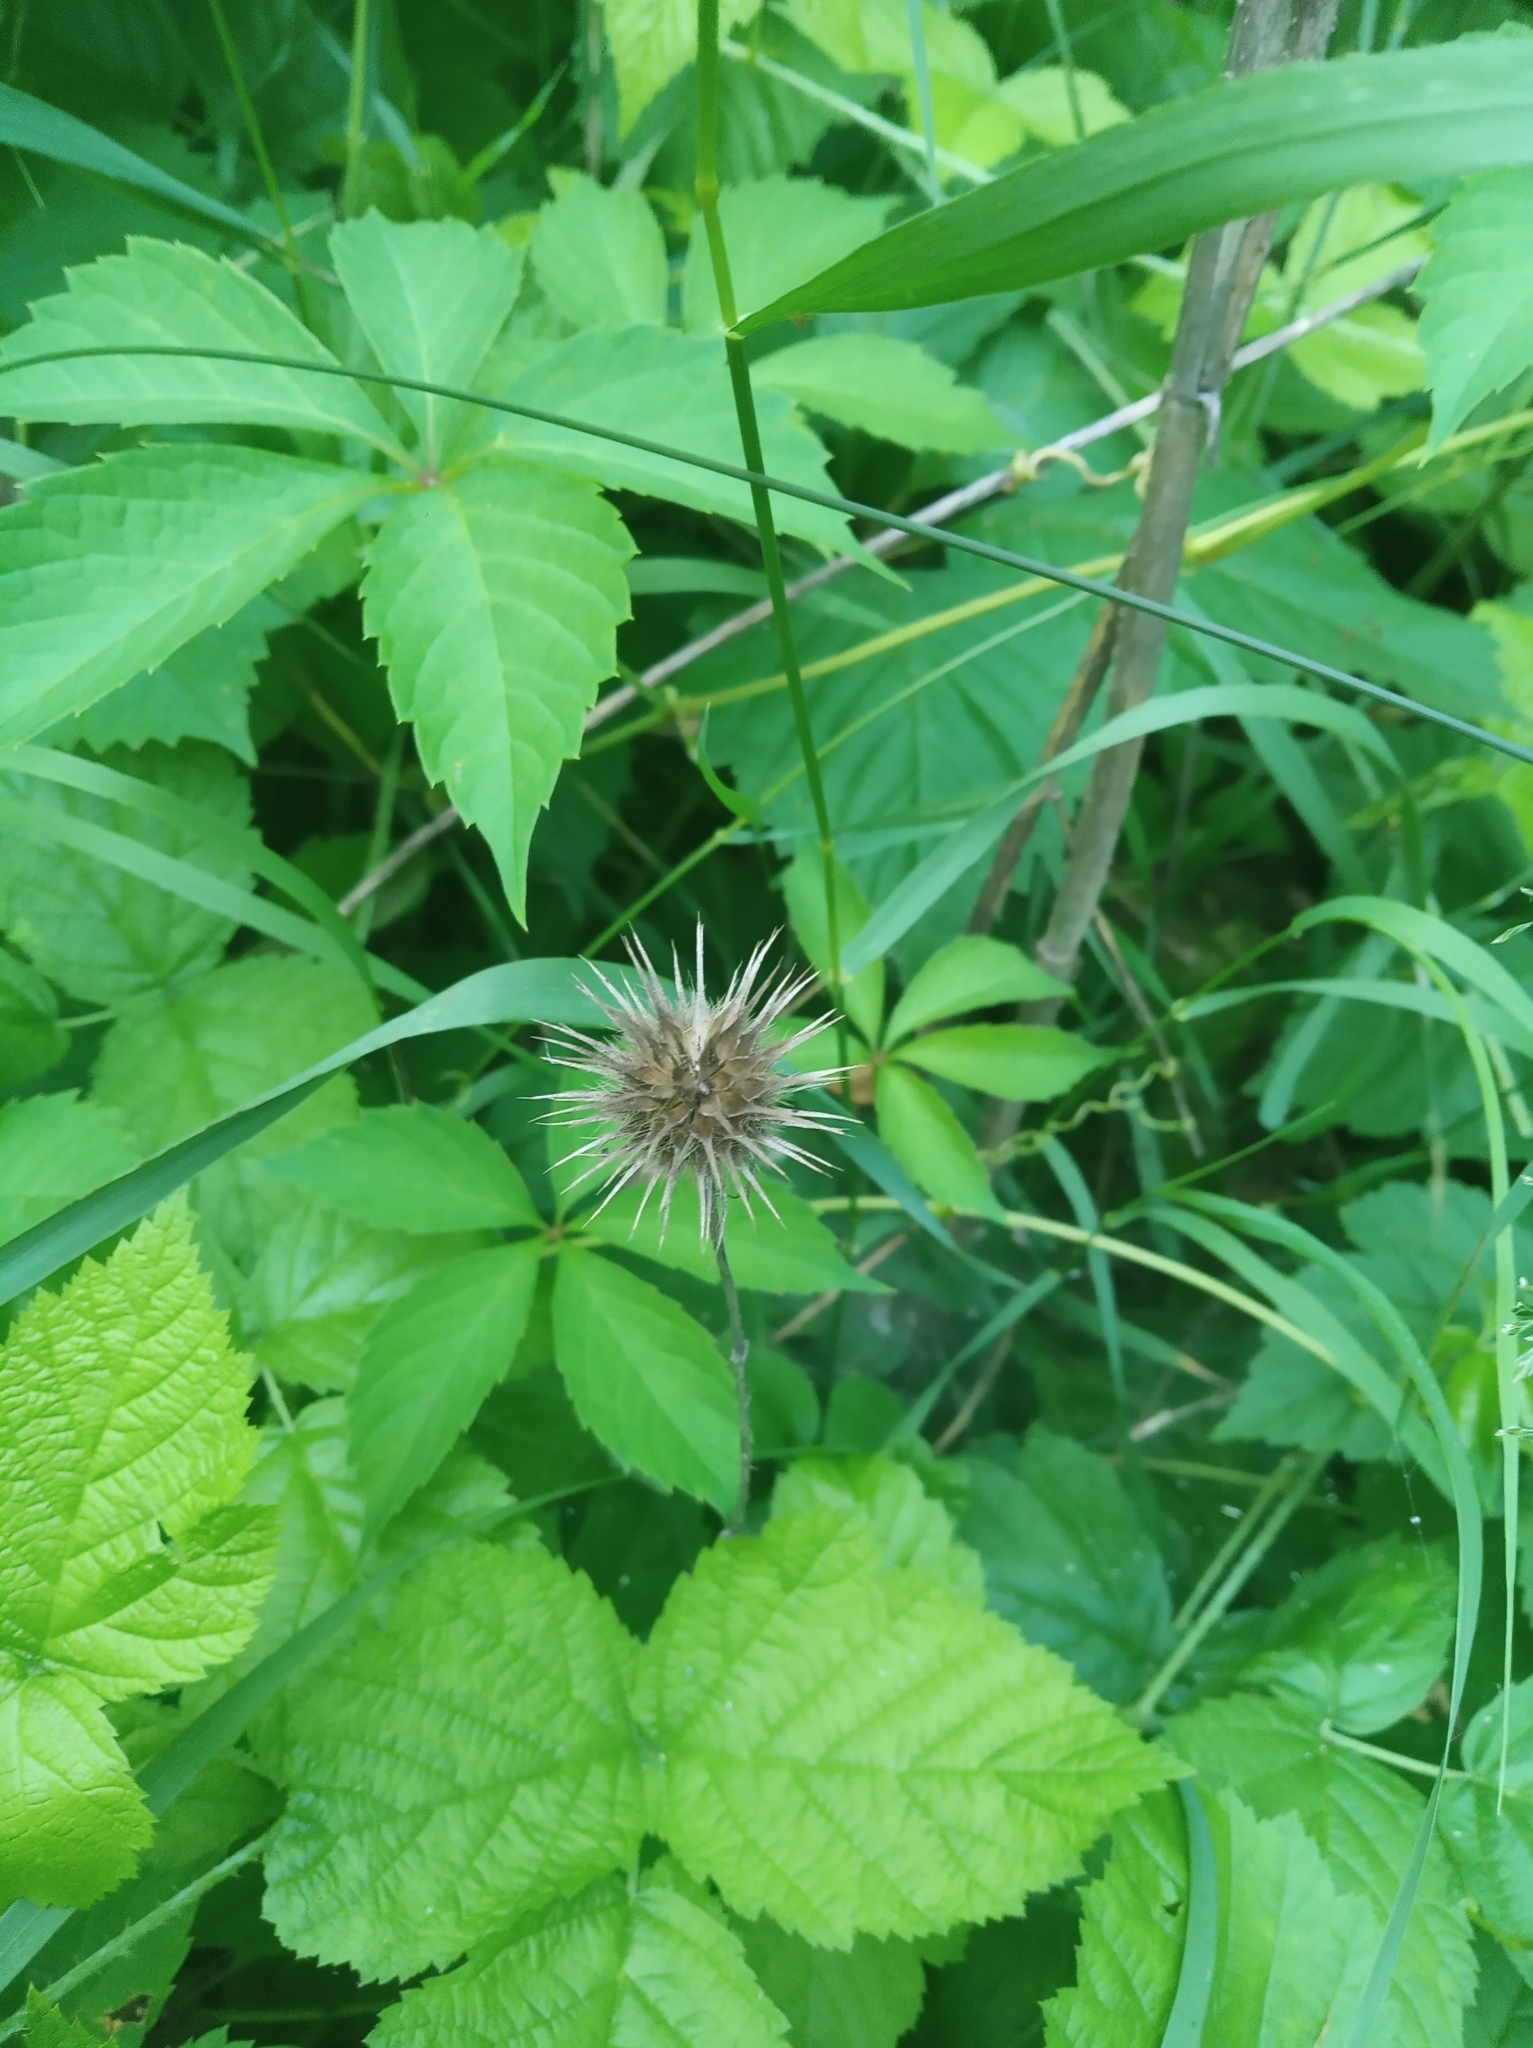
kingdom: Plantae
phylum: Tracheophyta
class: Magnoliopsida
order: Dipsacales
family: Caprifoliaceae
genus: Dipsacus
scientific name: Dipsacus strigosus
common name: Yellow-flowered teasel
